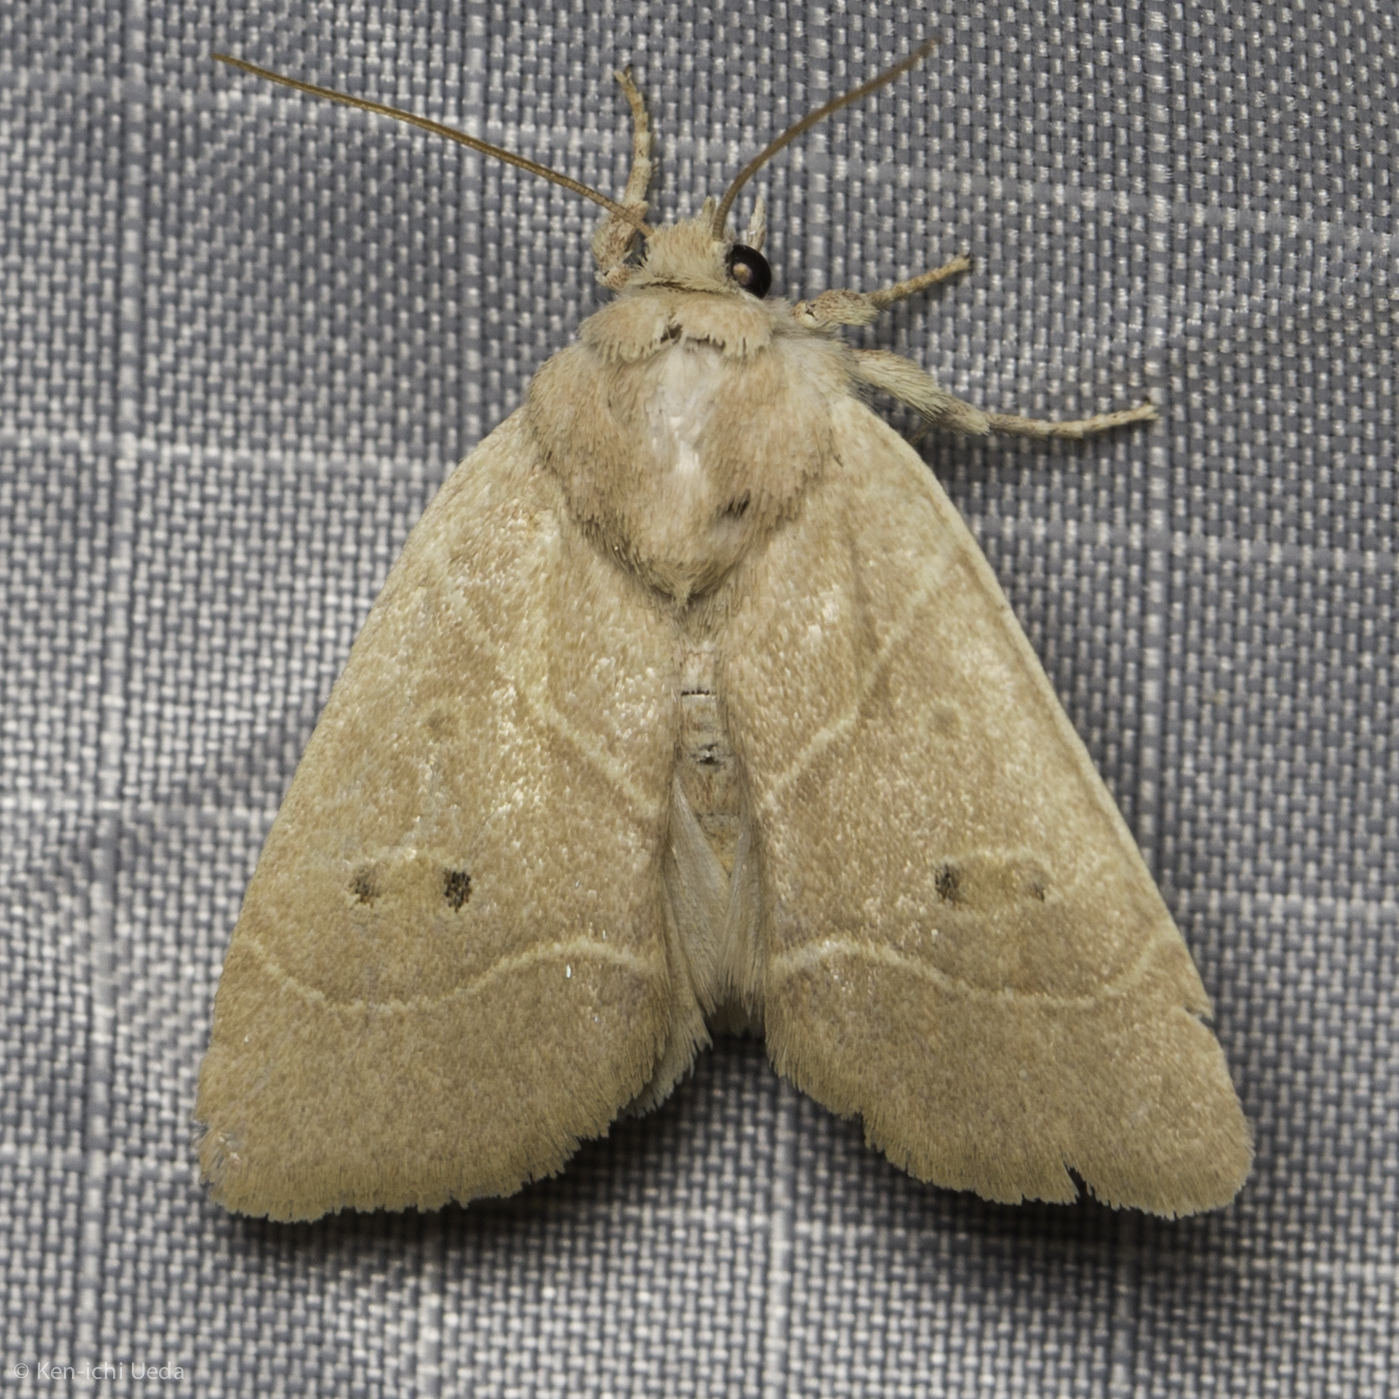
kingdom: Animalia
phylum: Arthropoda
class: Insecta
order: Lepidoptera
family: Noctuidae
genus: Cosmia
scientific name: Cosmia calami
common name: American dun-bar moth
